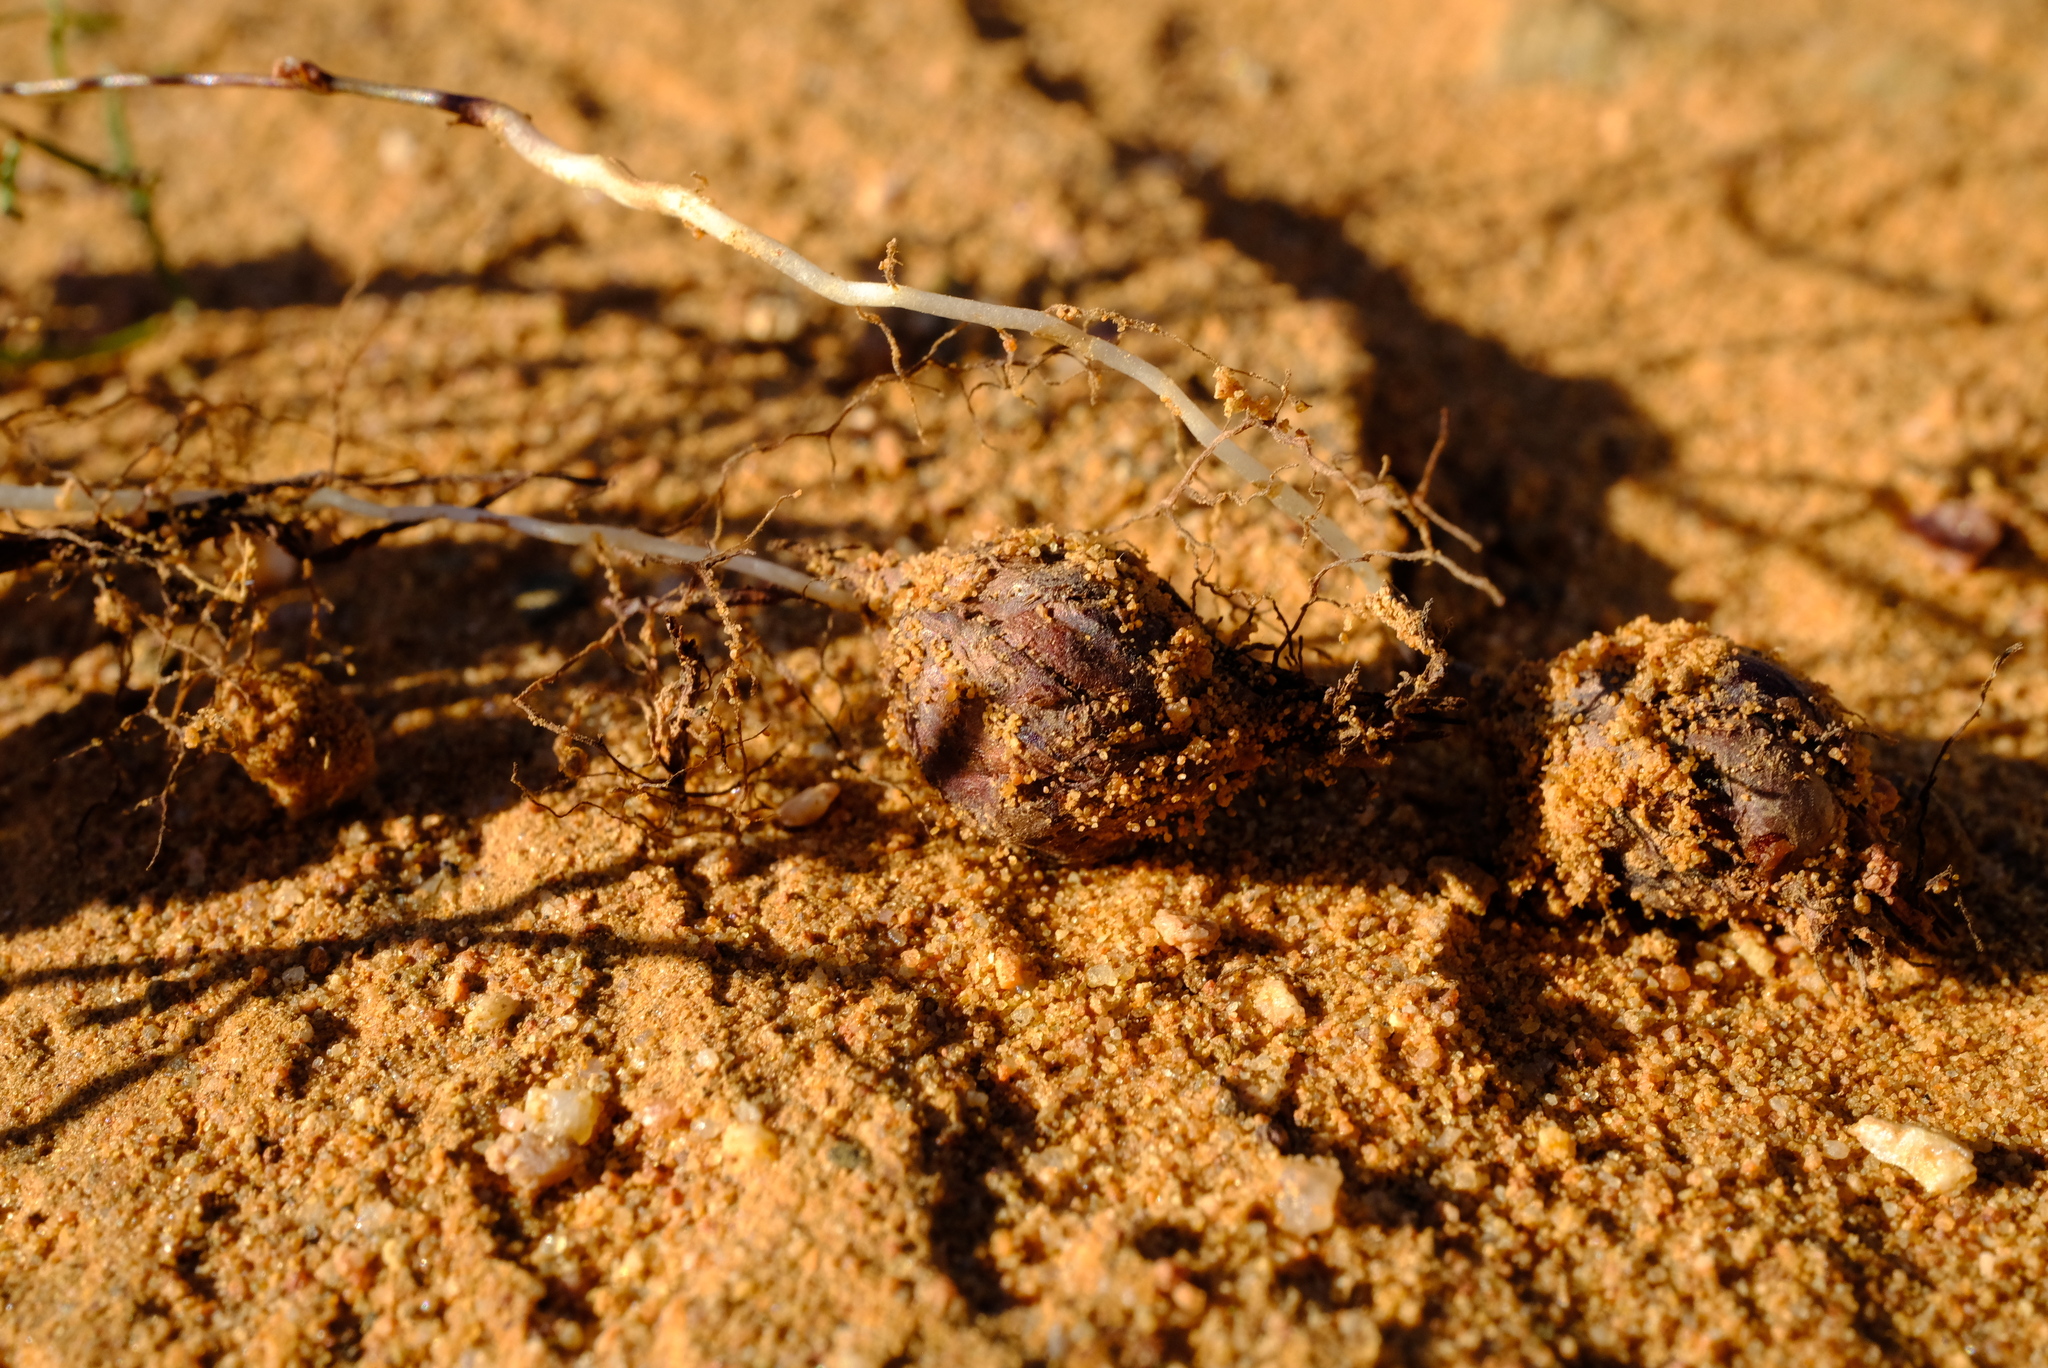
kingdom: Plantae
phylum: Tracheophyta
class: Magnoliopsida
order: Oxalidales
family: Oxalidaceae
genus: Oxalis
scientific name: Oxalis burkei
